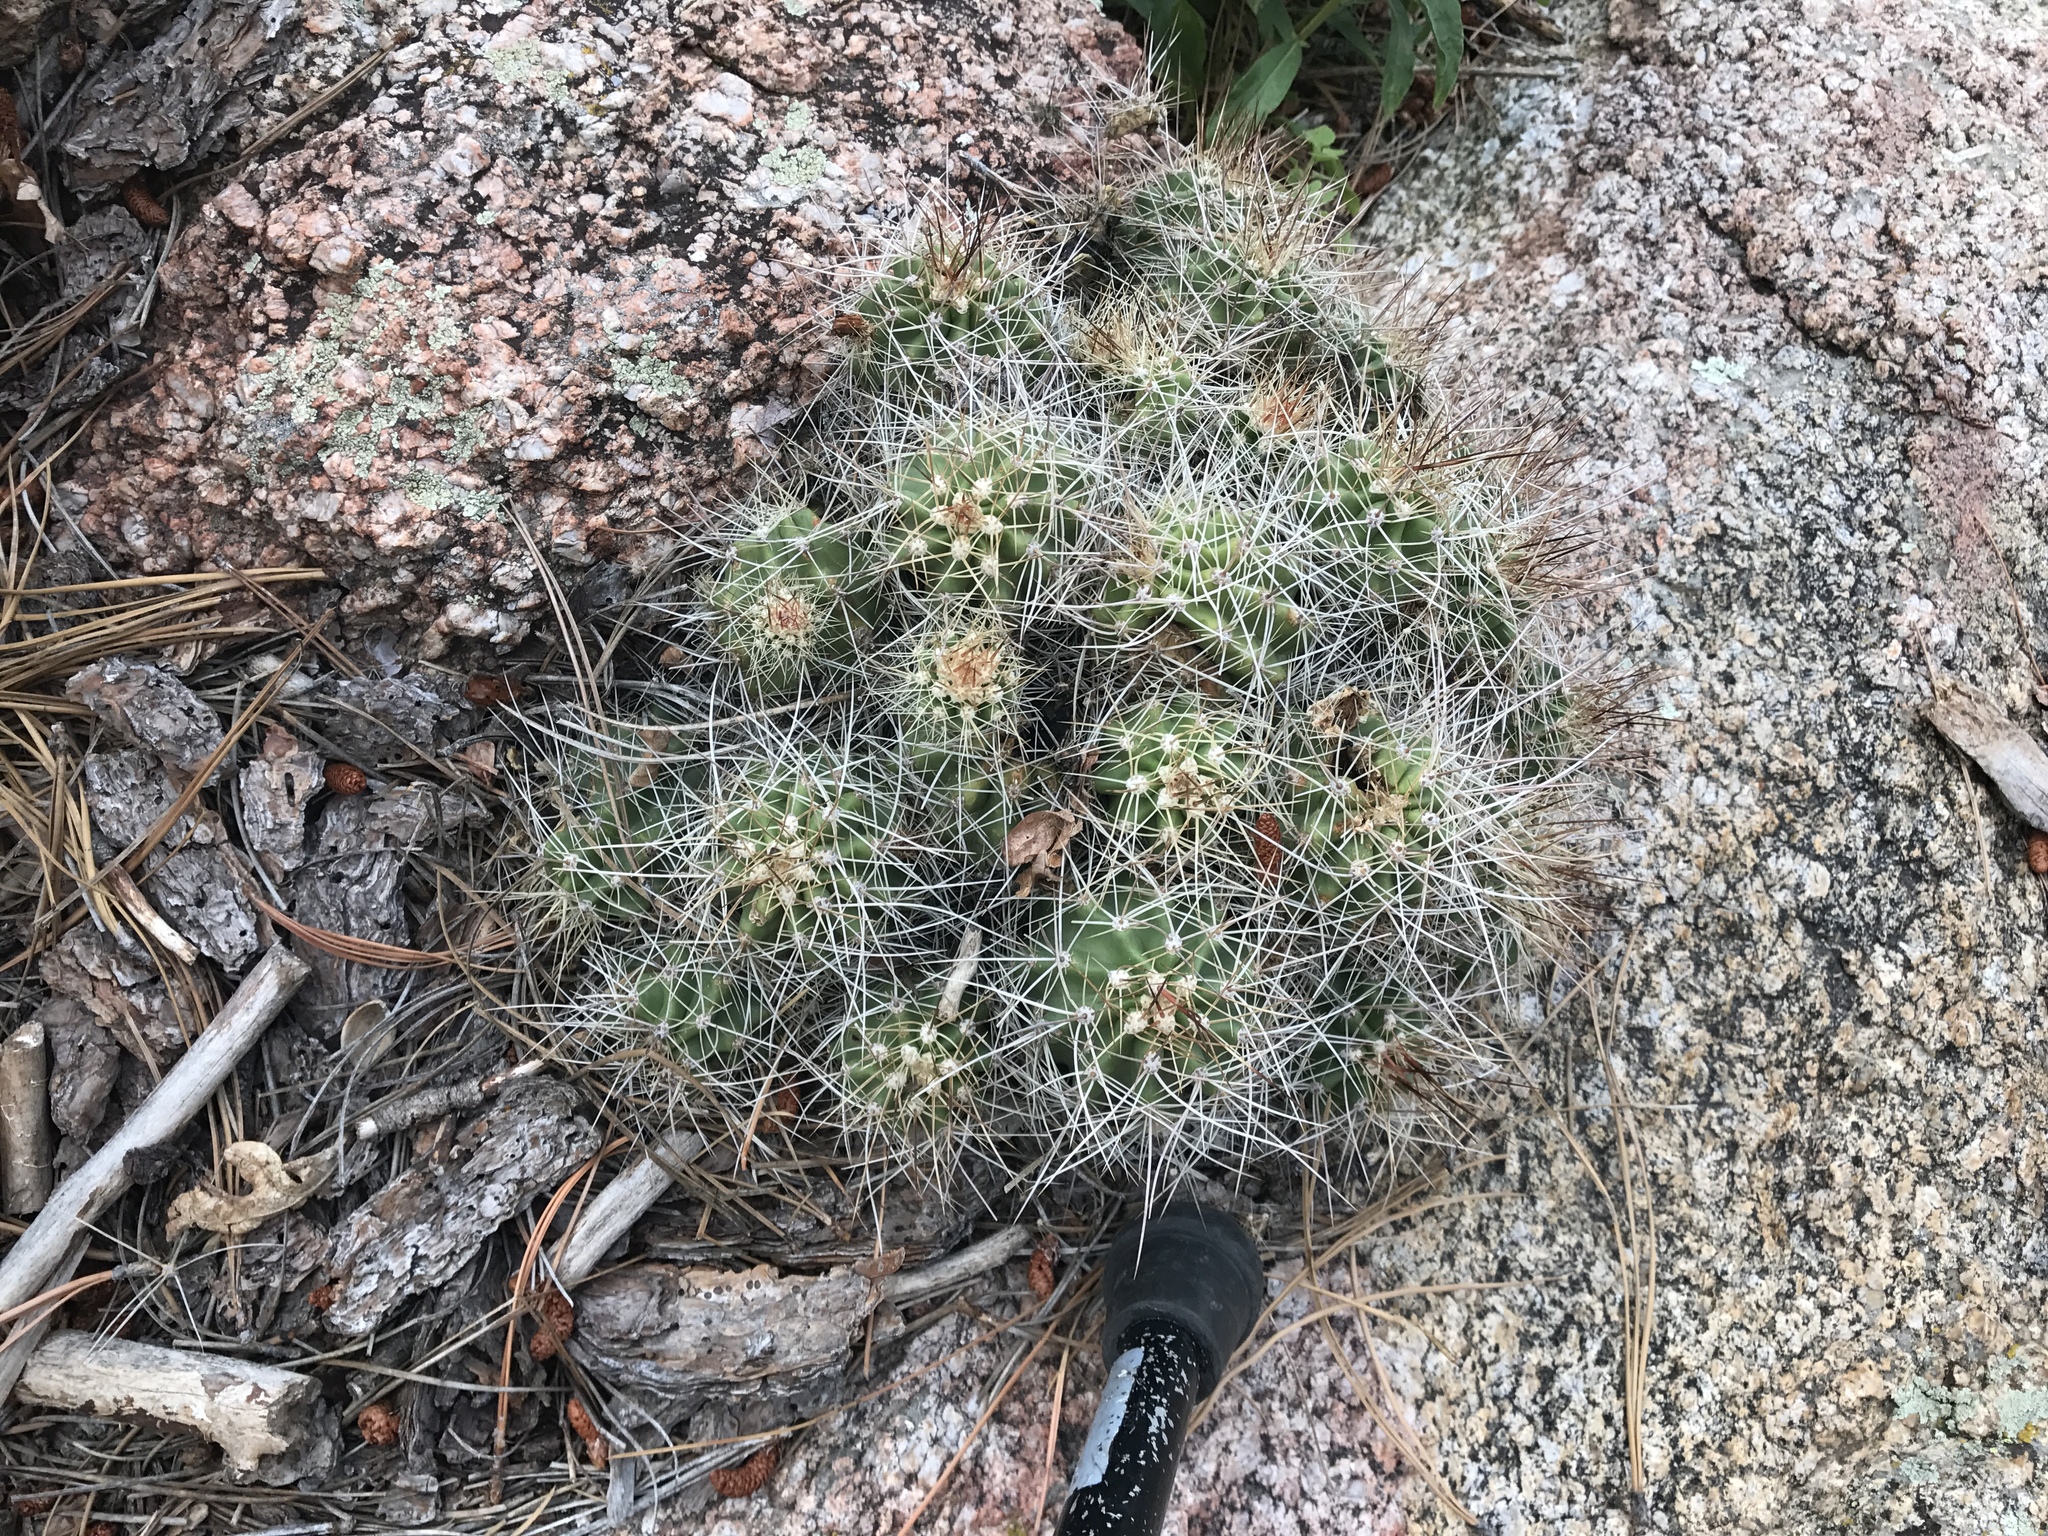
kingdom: Plantae
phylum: Tracheophyta
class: Magnoliopsida
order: Caryophyllales
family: Cactaceae
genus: Echinocereus
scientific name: Echinocereus bakeri
